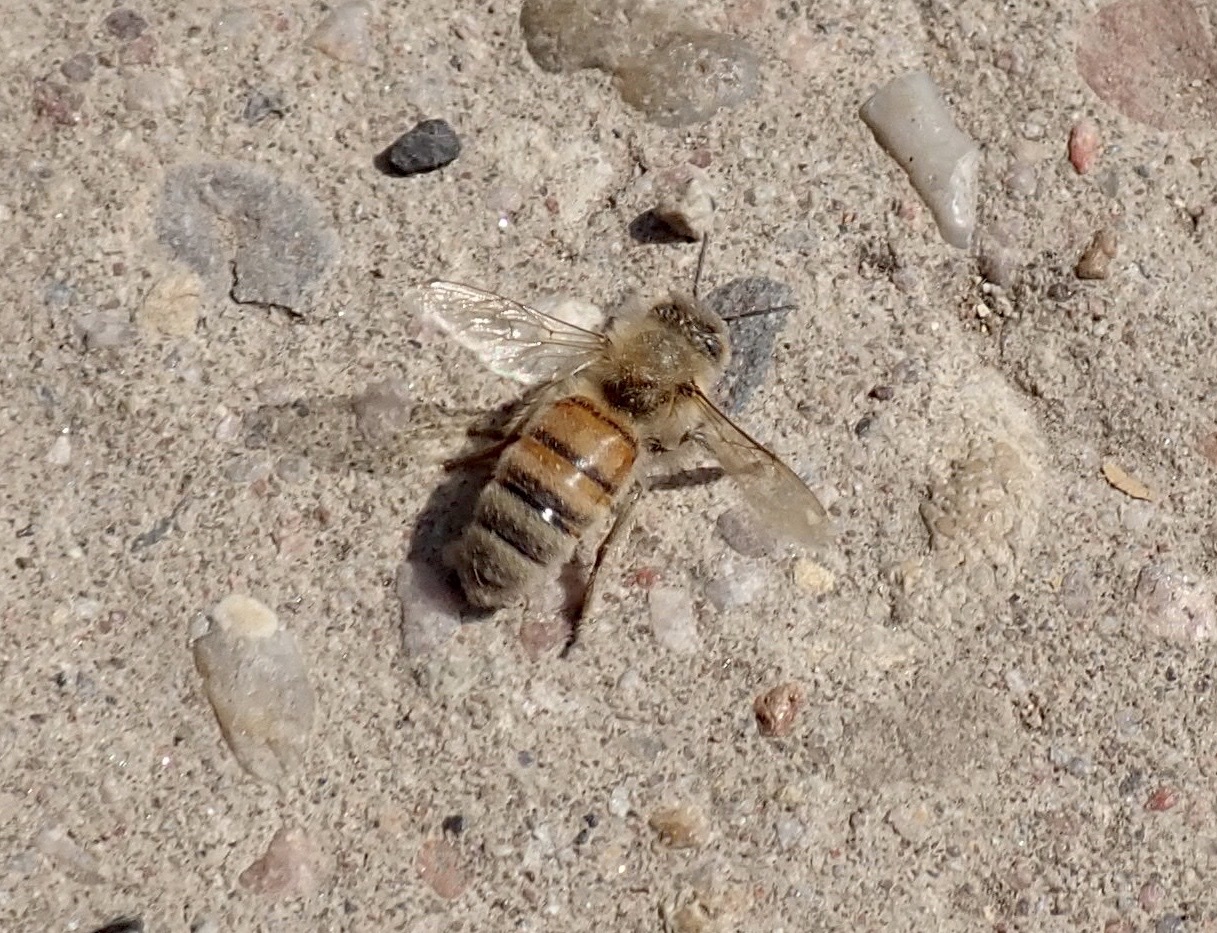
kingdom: Animalia
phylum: Arthropoda
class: Insecta
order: Hymenoptera
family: Apidae
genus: Apis
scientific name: Apis mellifera
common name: Honey bee
